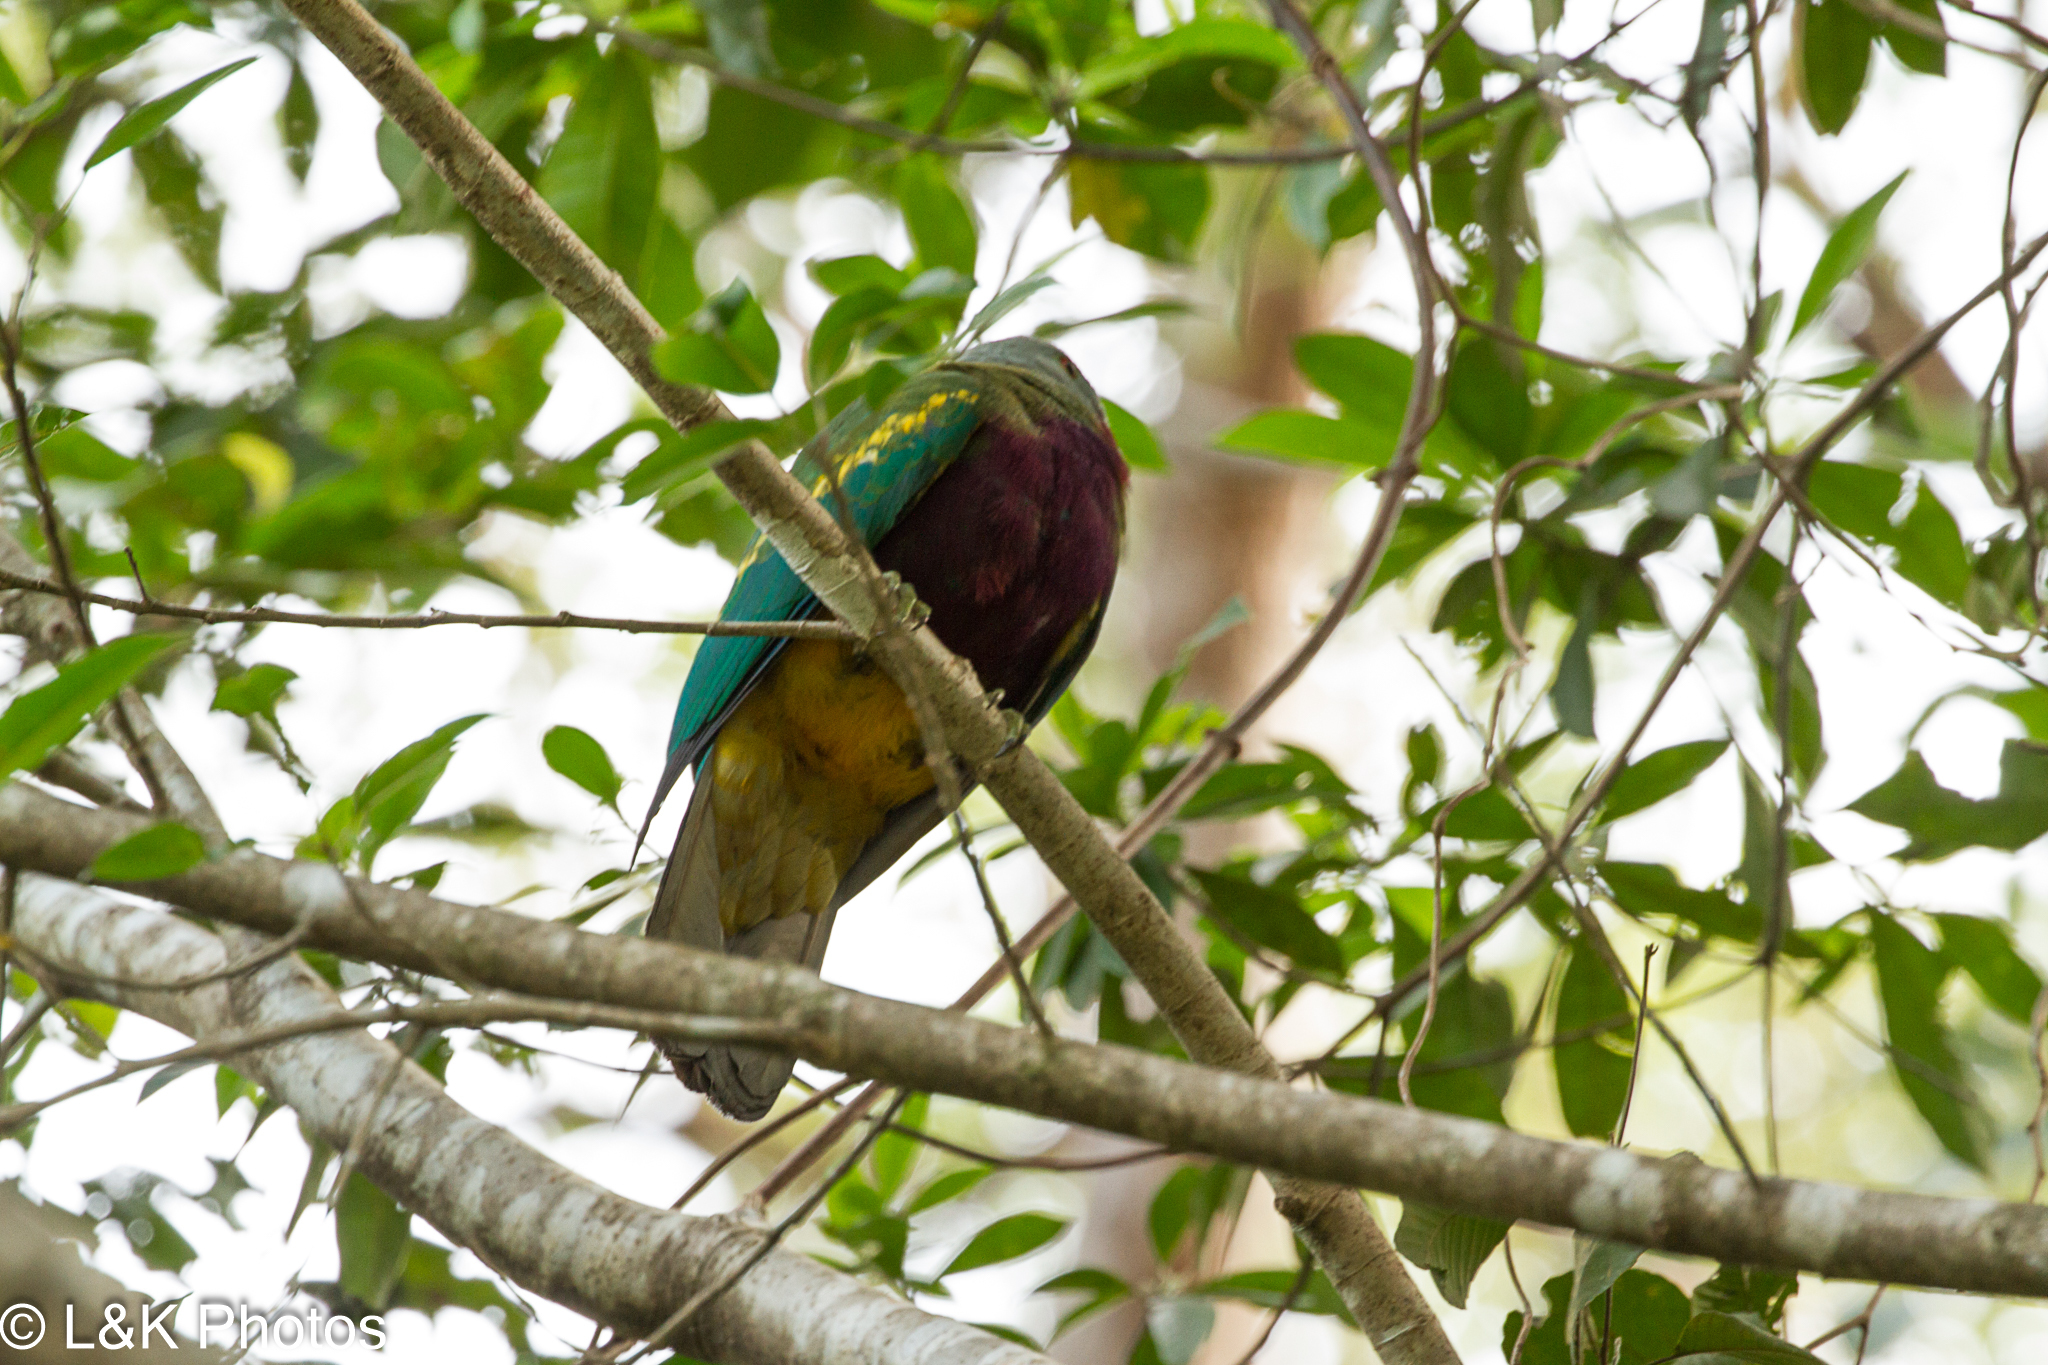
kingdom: Animalia
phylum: Chordata
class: Aves
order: Columbiformes
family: Columbidae
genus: Ptilinopus
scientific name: Ptilinopus magnificus
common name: Wompoo fruit dove
